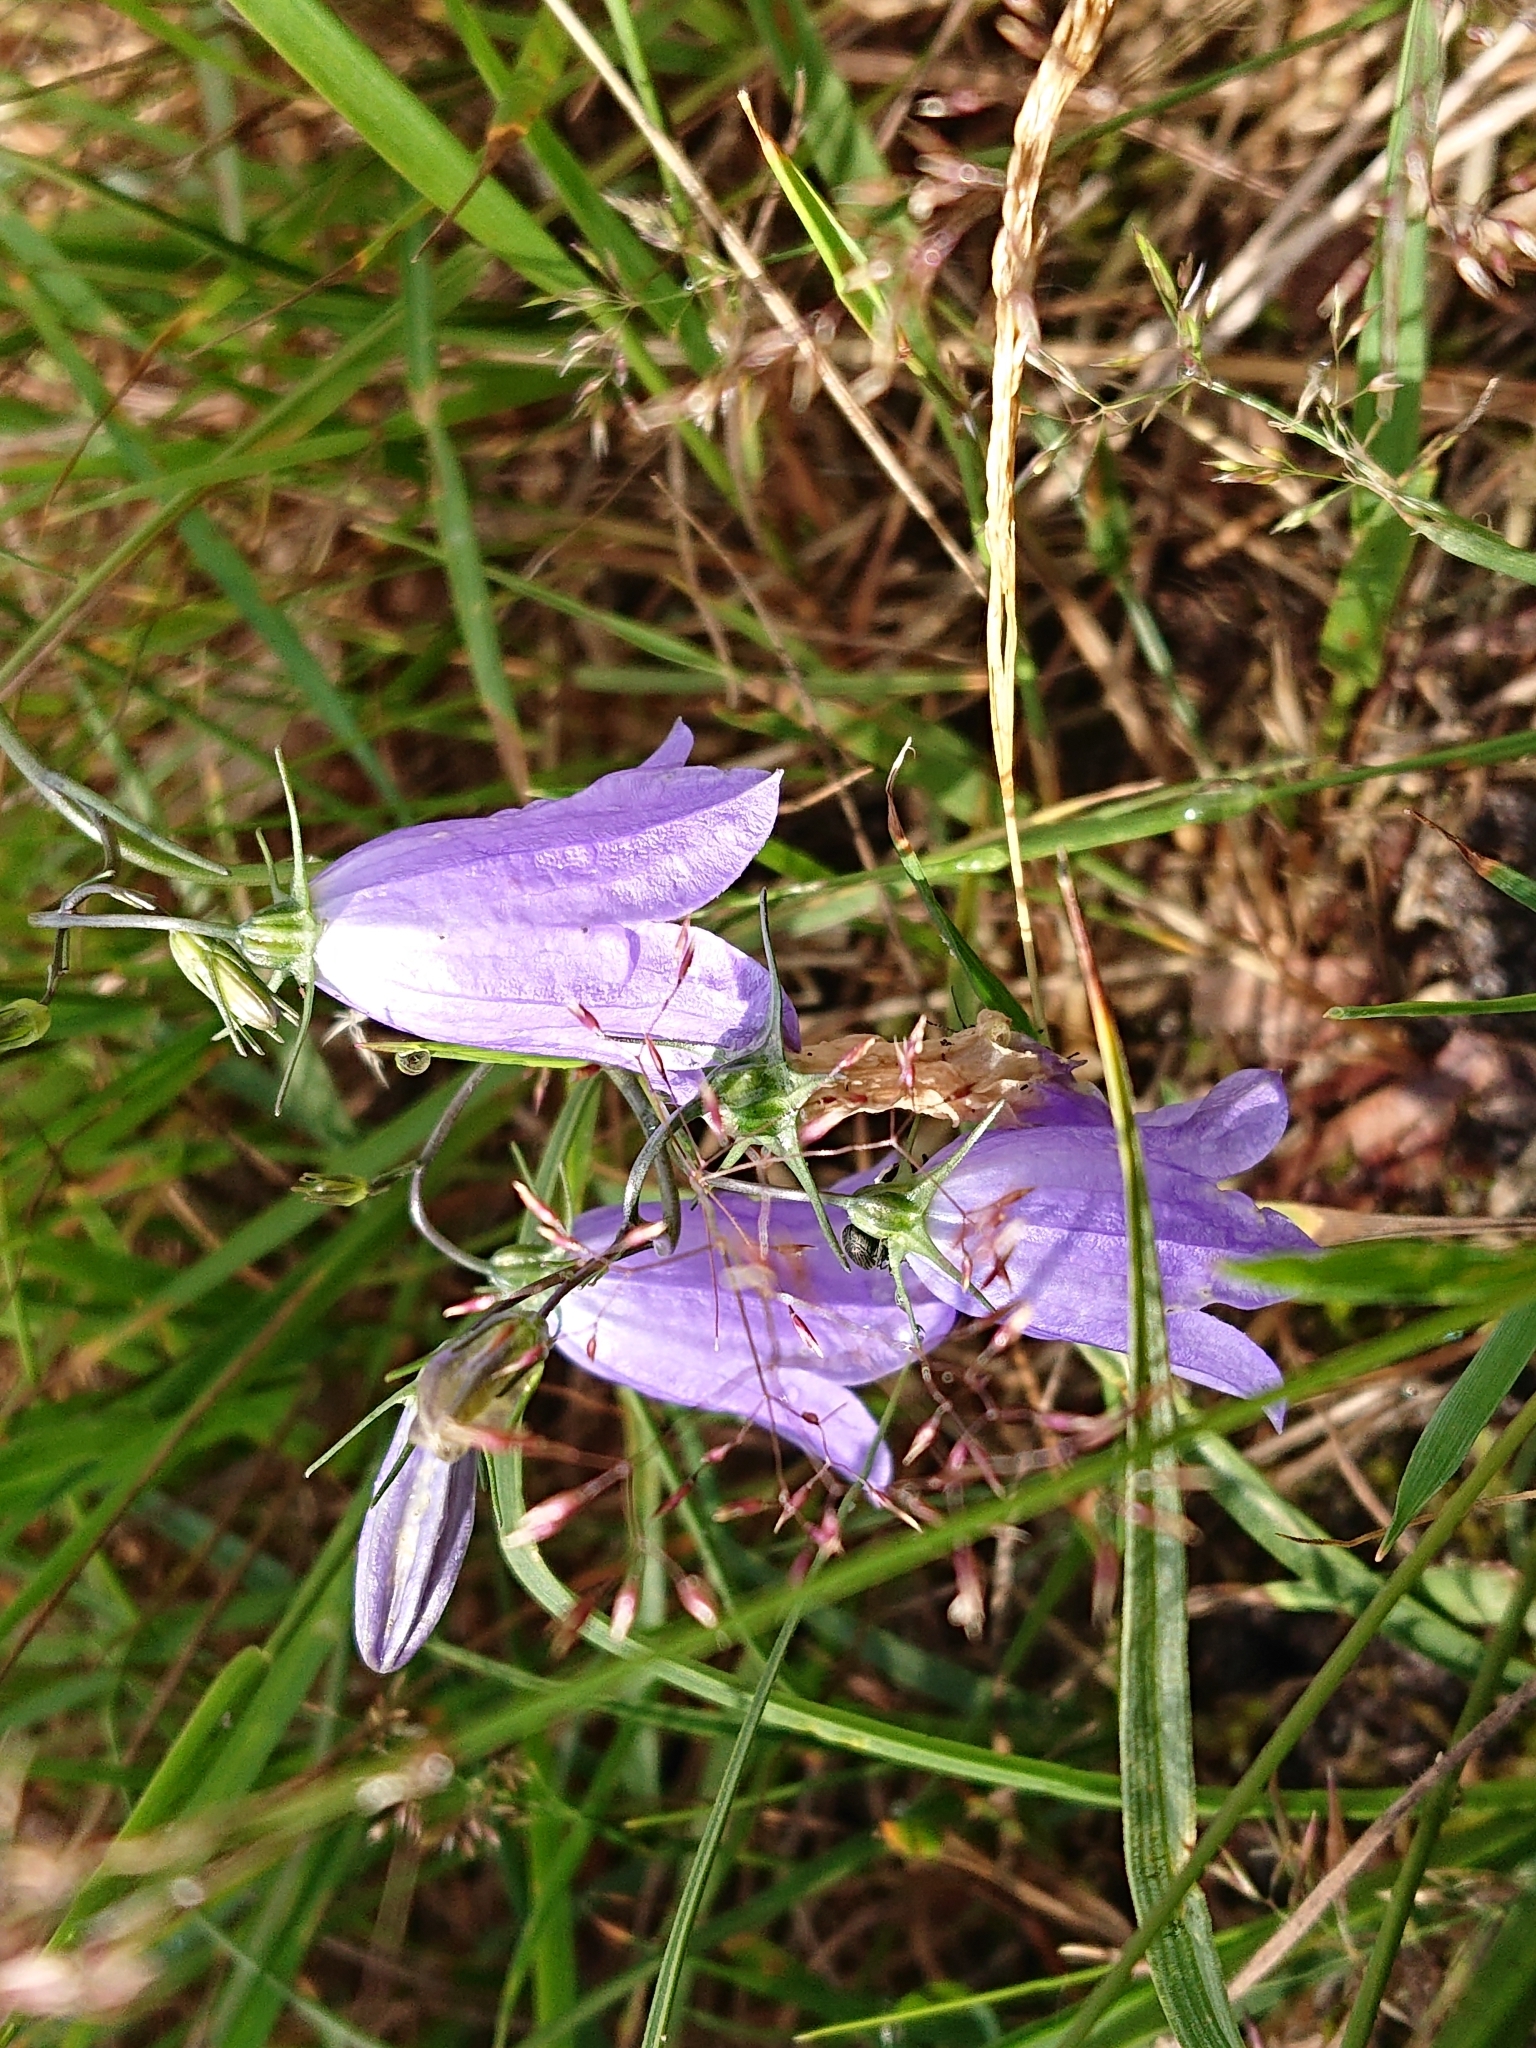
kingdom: Plantae
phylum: Tracheophyta
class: Magnoliopsida
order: Asterales
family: Campanulaceae
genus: Campanula
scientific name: Campanula rotundifolia
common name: Harebell
